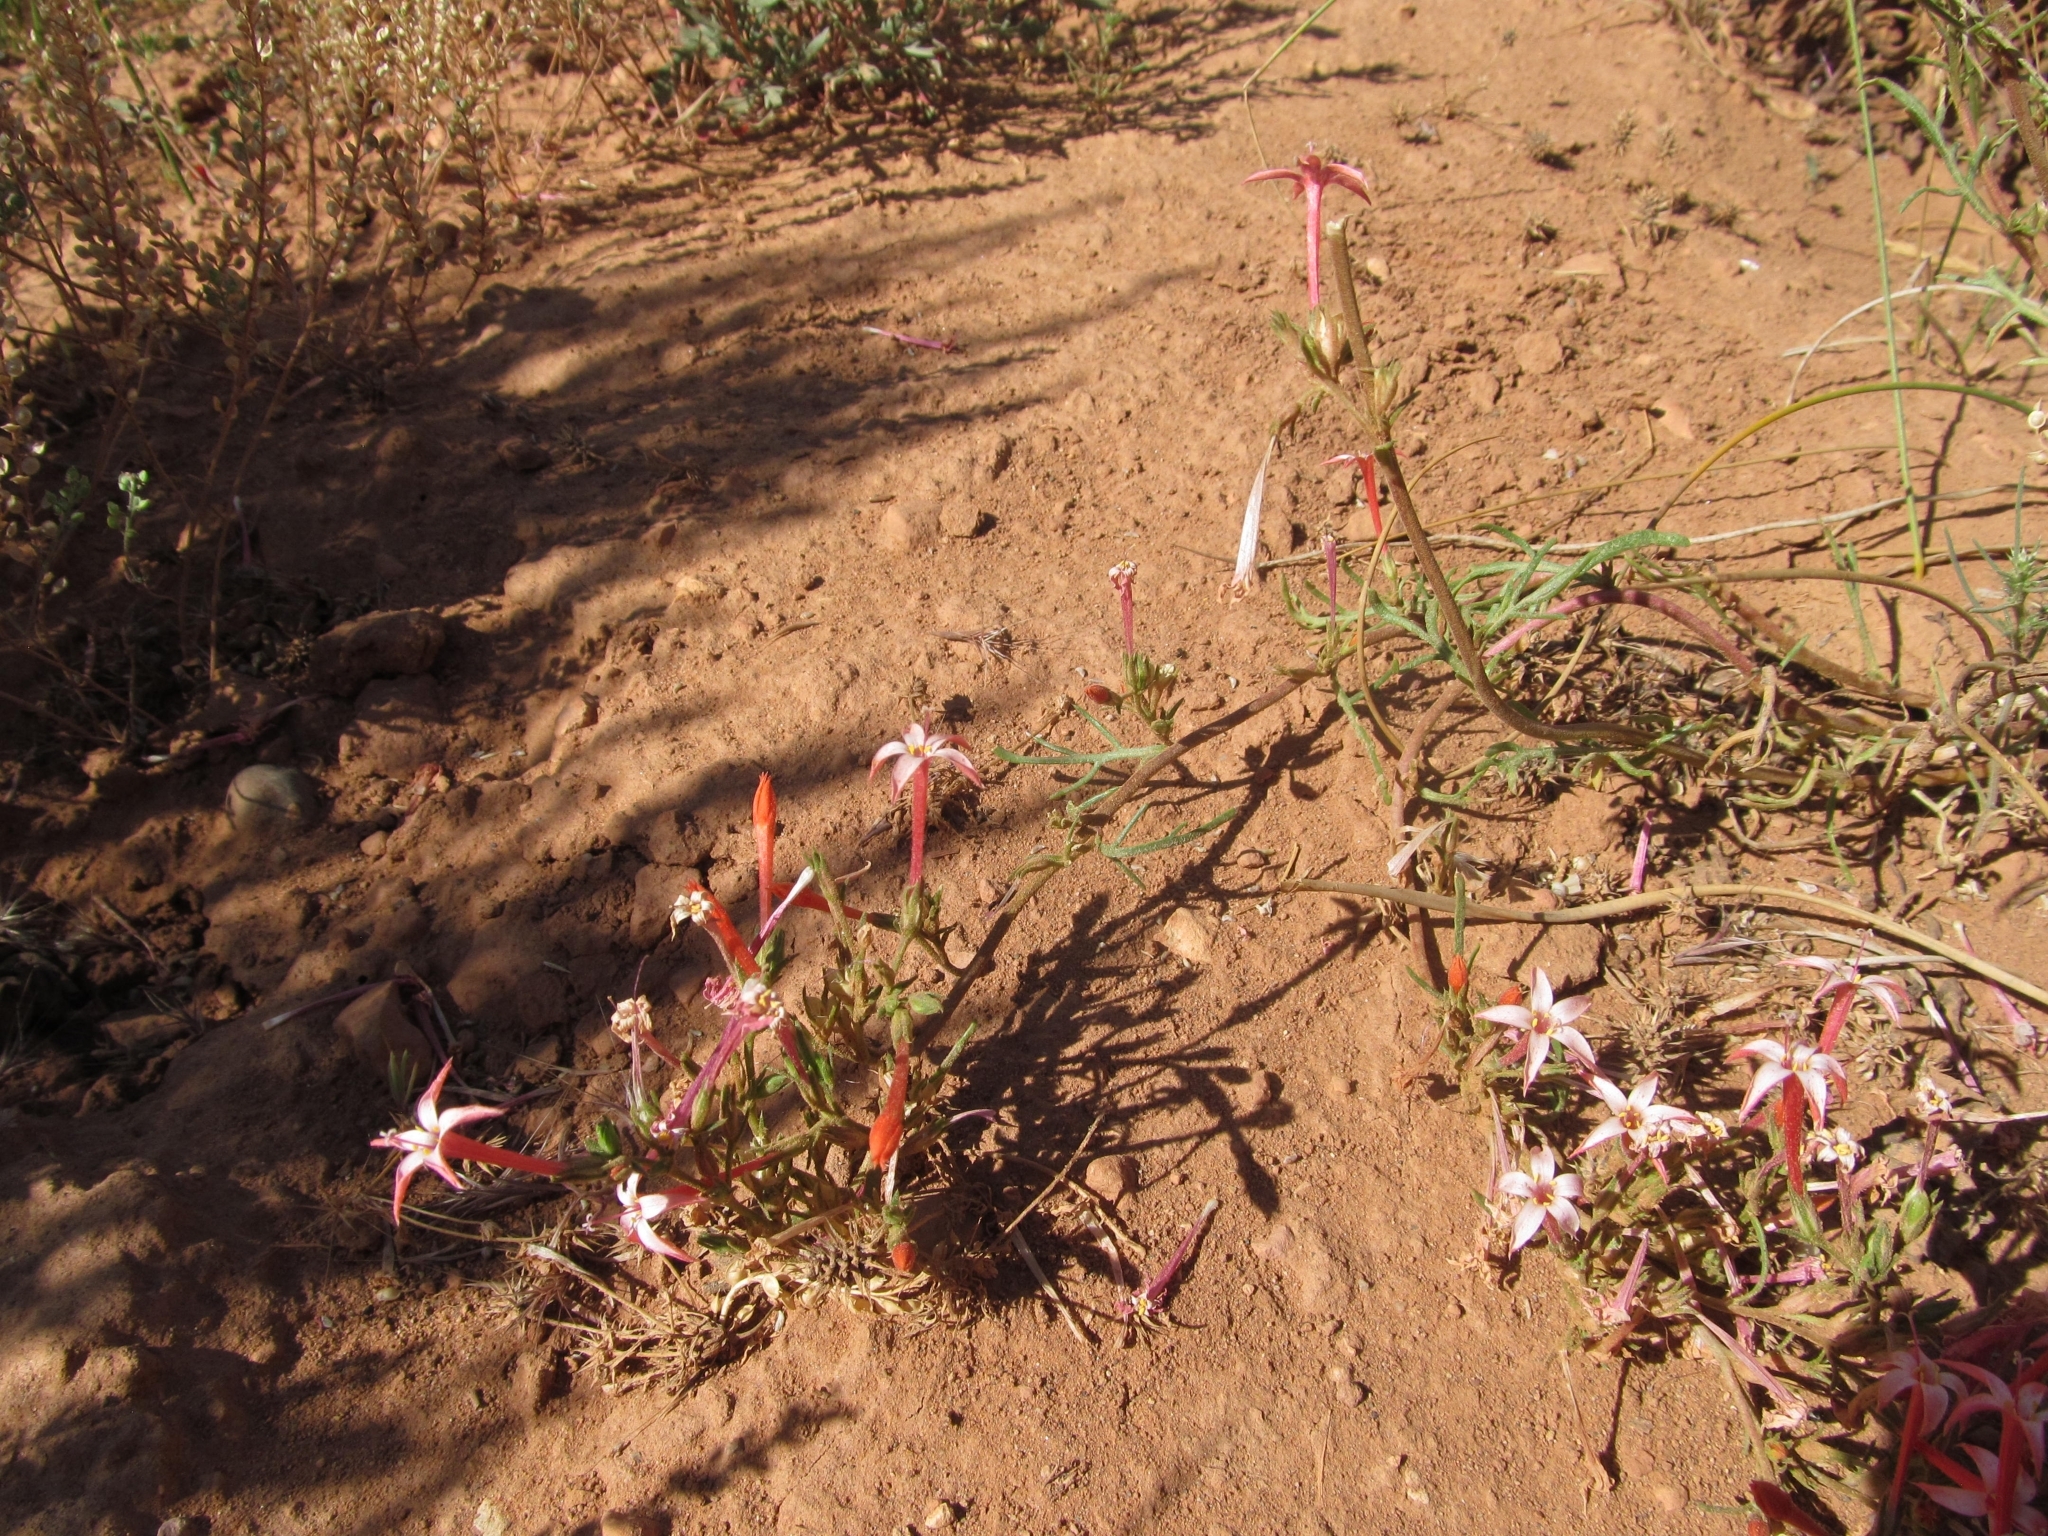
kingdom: Plantae
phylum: Tracheophyta
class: Magnoliopsida
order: Ericales
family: Polemoniaceae
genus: Ipomopsis
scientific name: Ipomopsis aggregata
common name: Scarlet gilia
